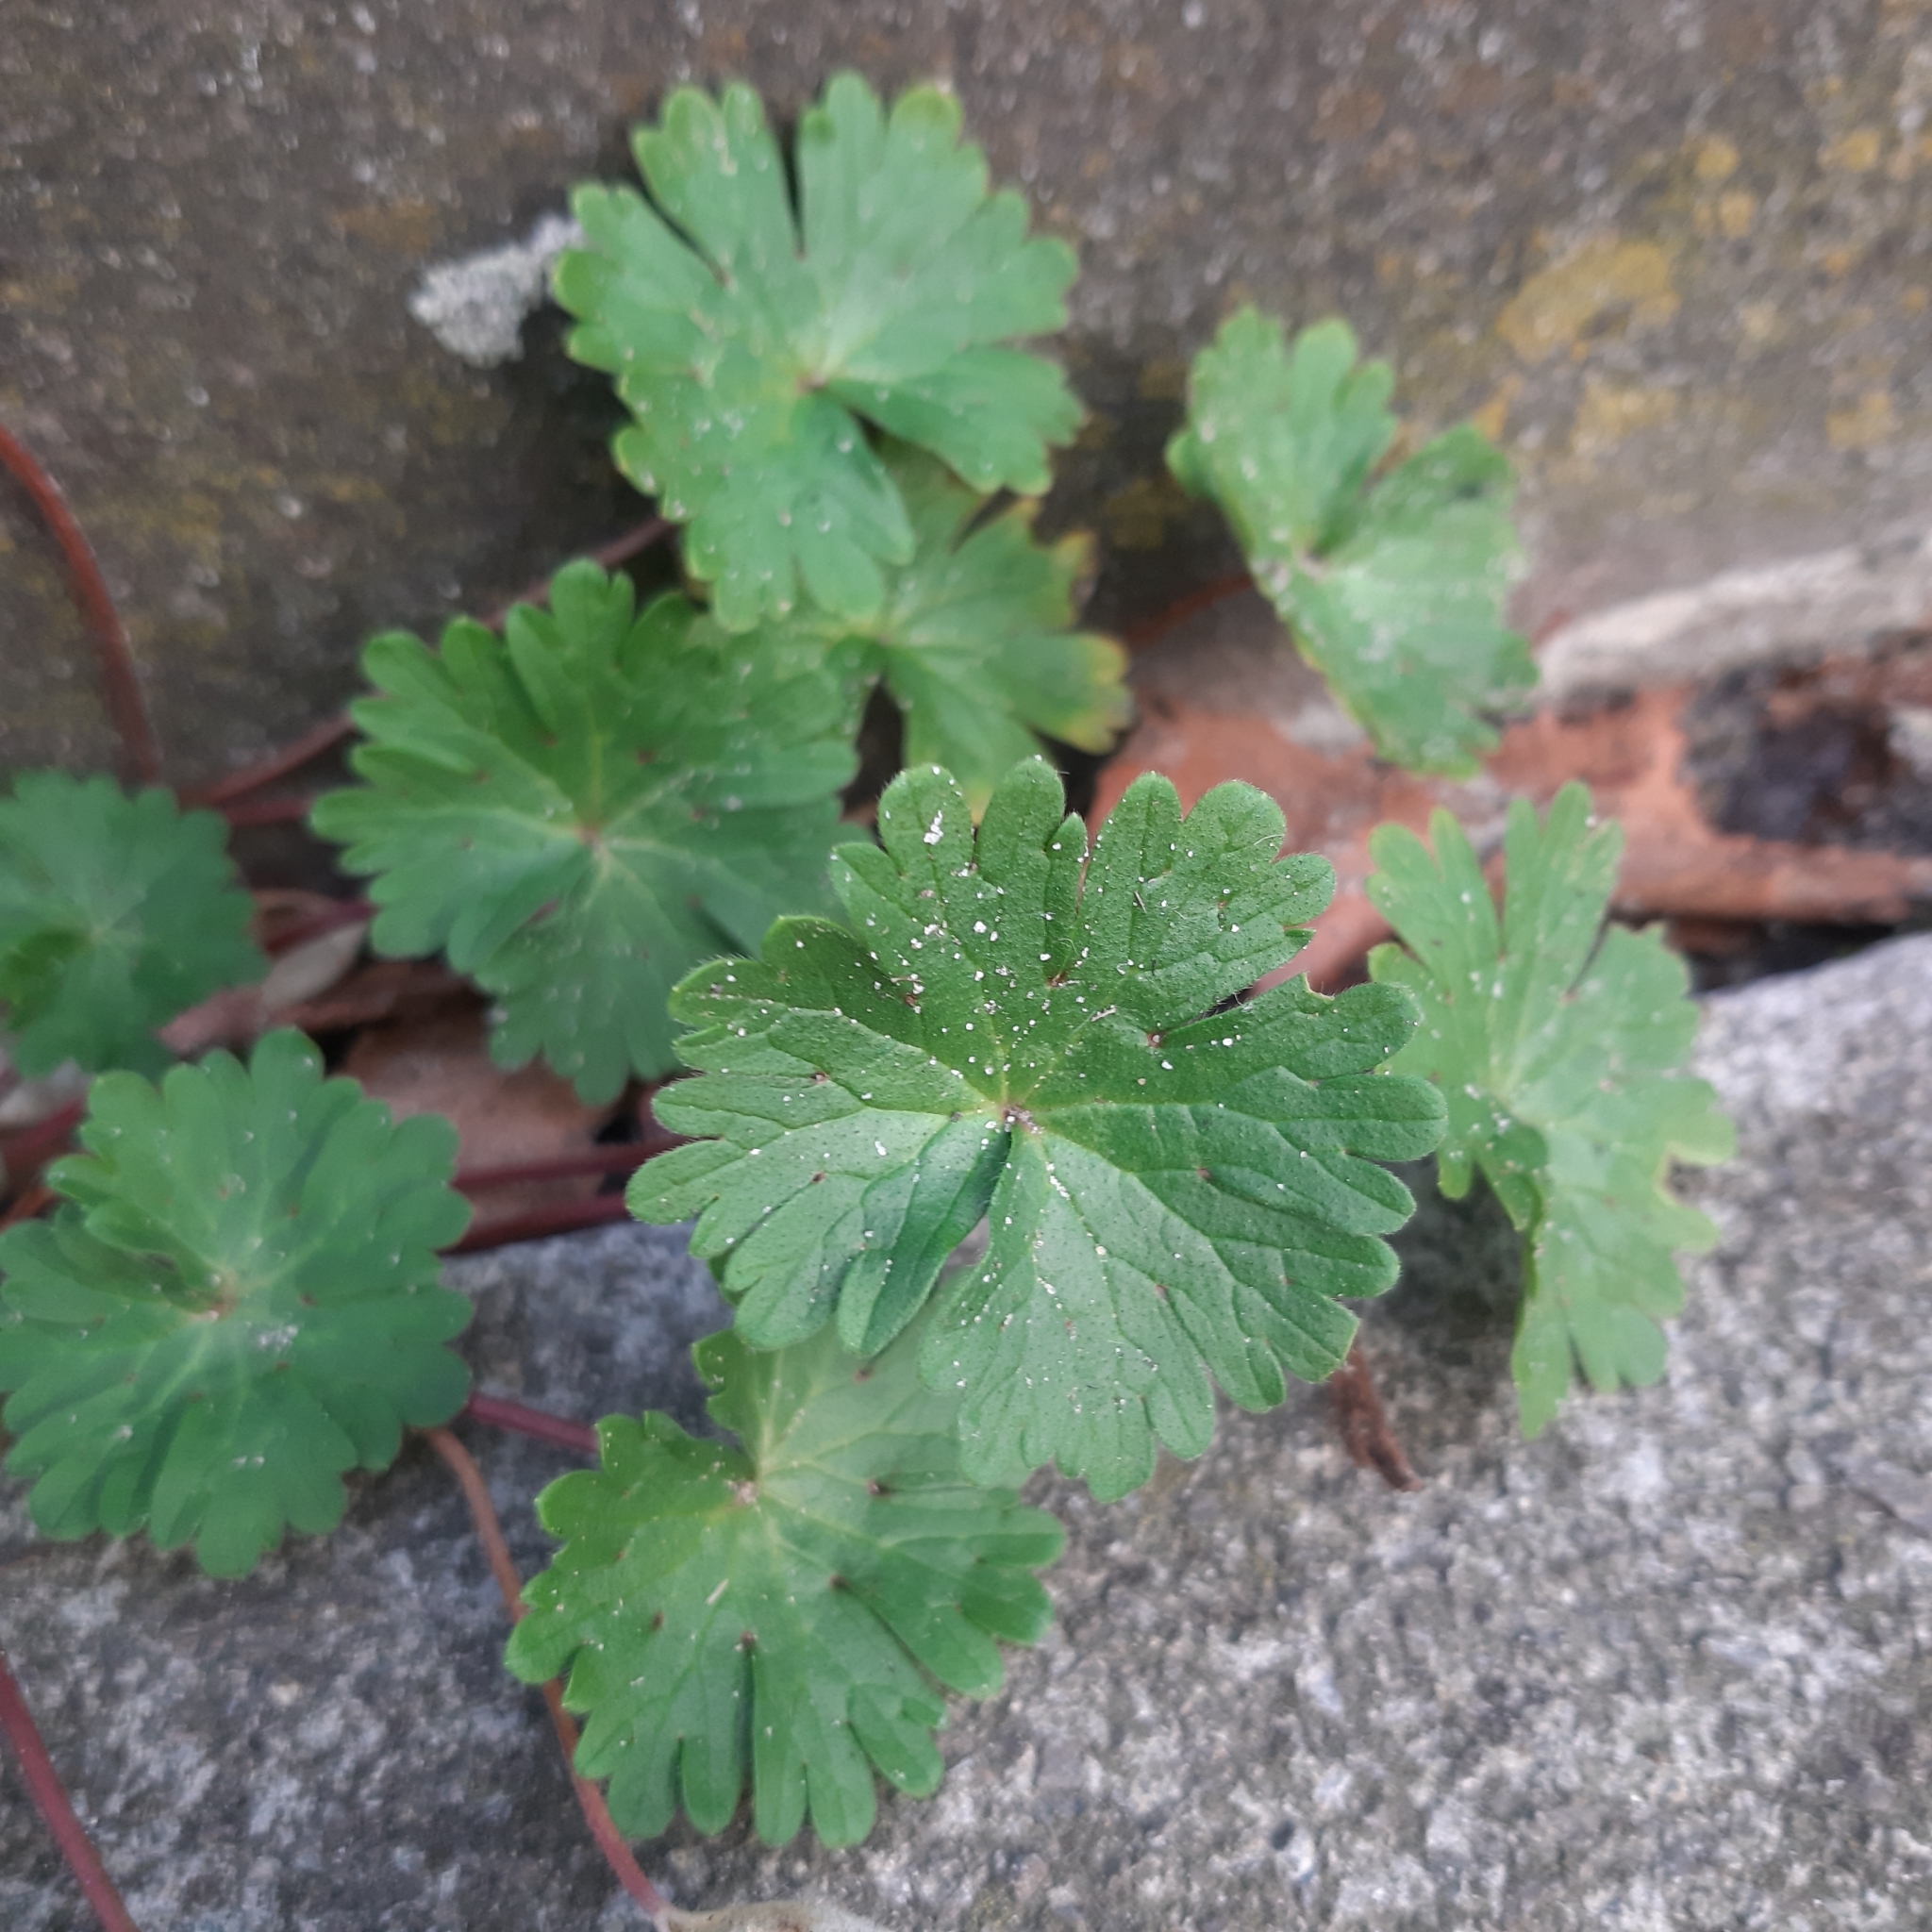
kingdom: Plantae
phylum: Tracheophyta
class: Magnoliopsida
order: Geraniales
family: Geraniaceae
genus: Geranium
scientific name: Geranium molle
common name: Dove's-foot crane's-bill
